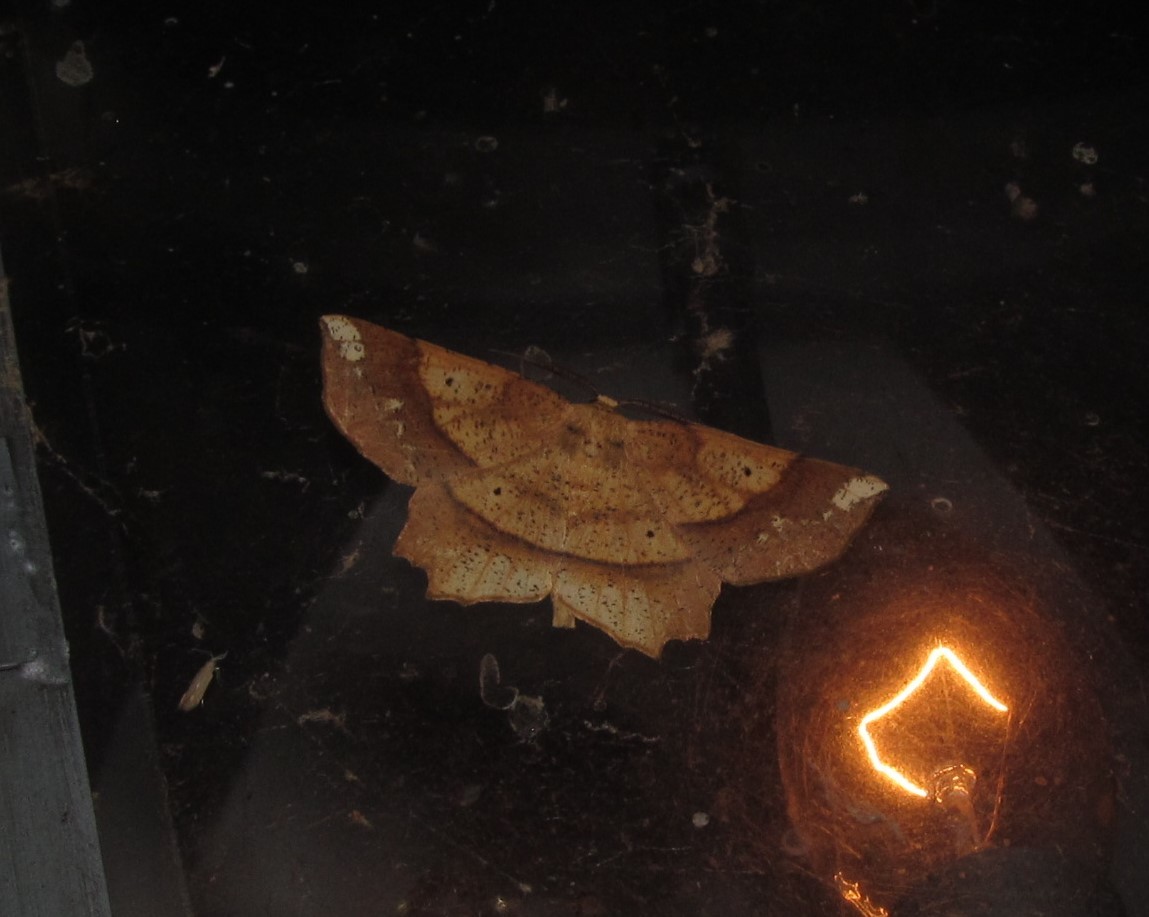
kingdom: Animalia
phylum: Arthropoda
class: Insecta
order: Lepidoptera
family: Geometridae
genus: Euchlaena
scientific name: Euchlaena amoenaria
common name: Deep yellow euchlaena
